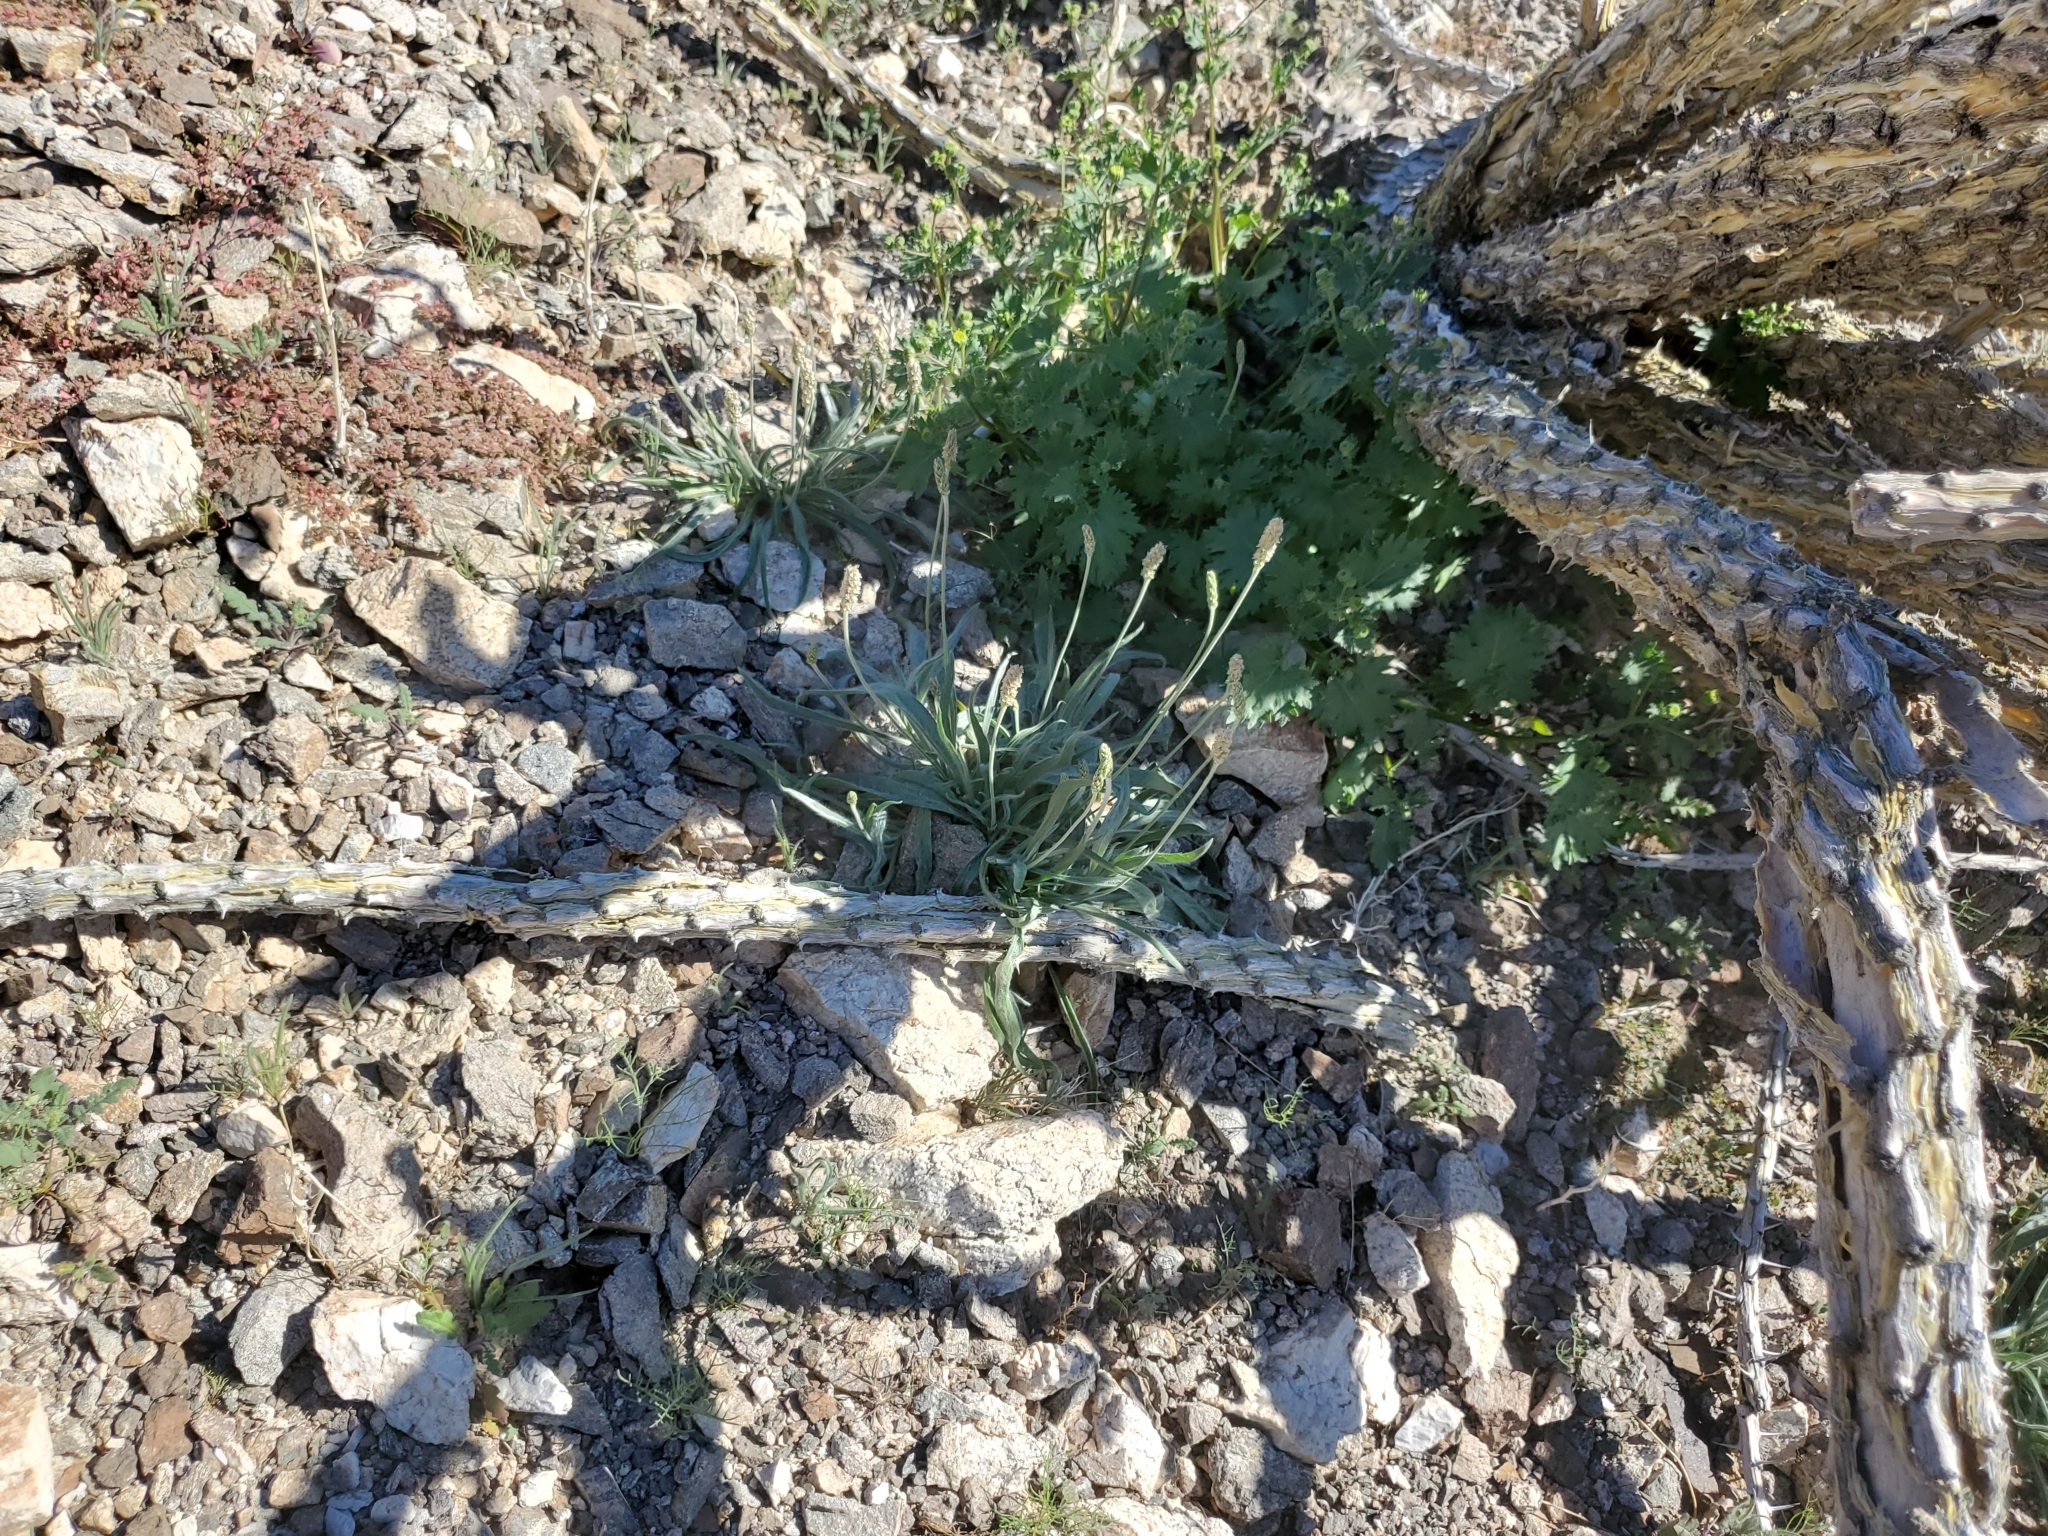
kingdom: Plantae
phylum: Tracheophyta
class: Magnoliopsida
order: Lamiales
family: Plantaginaceae
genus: Plantago
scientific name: Plantago ovata
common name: Blond plantain
